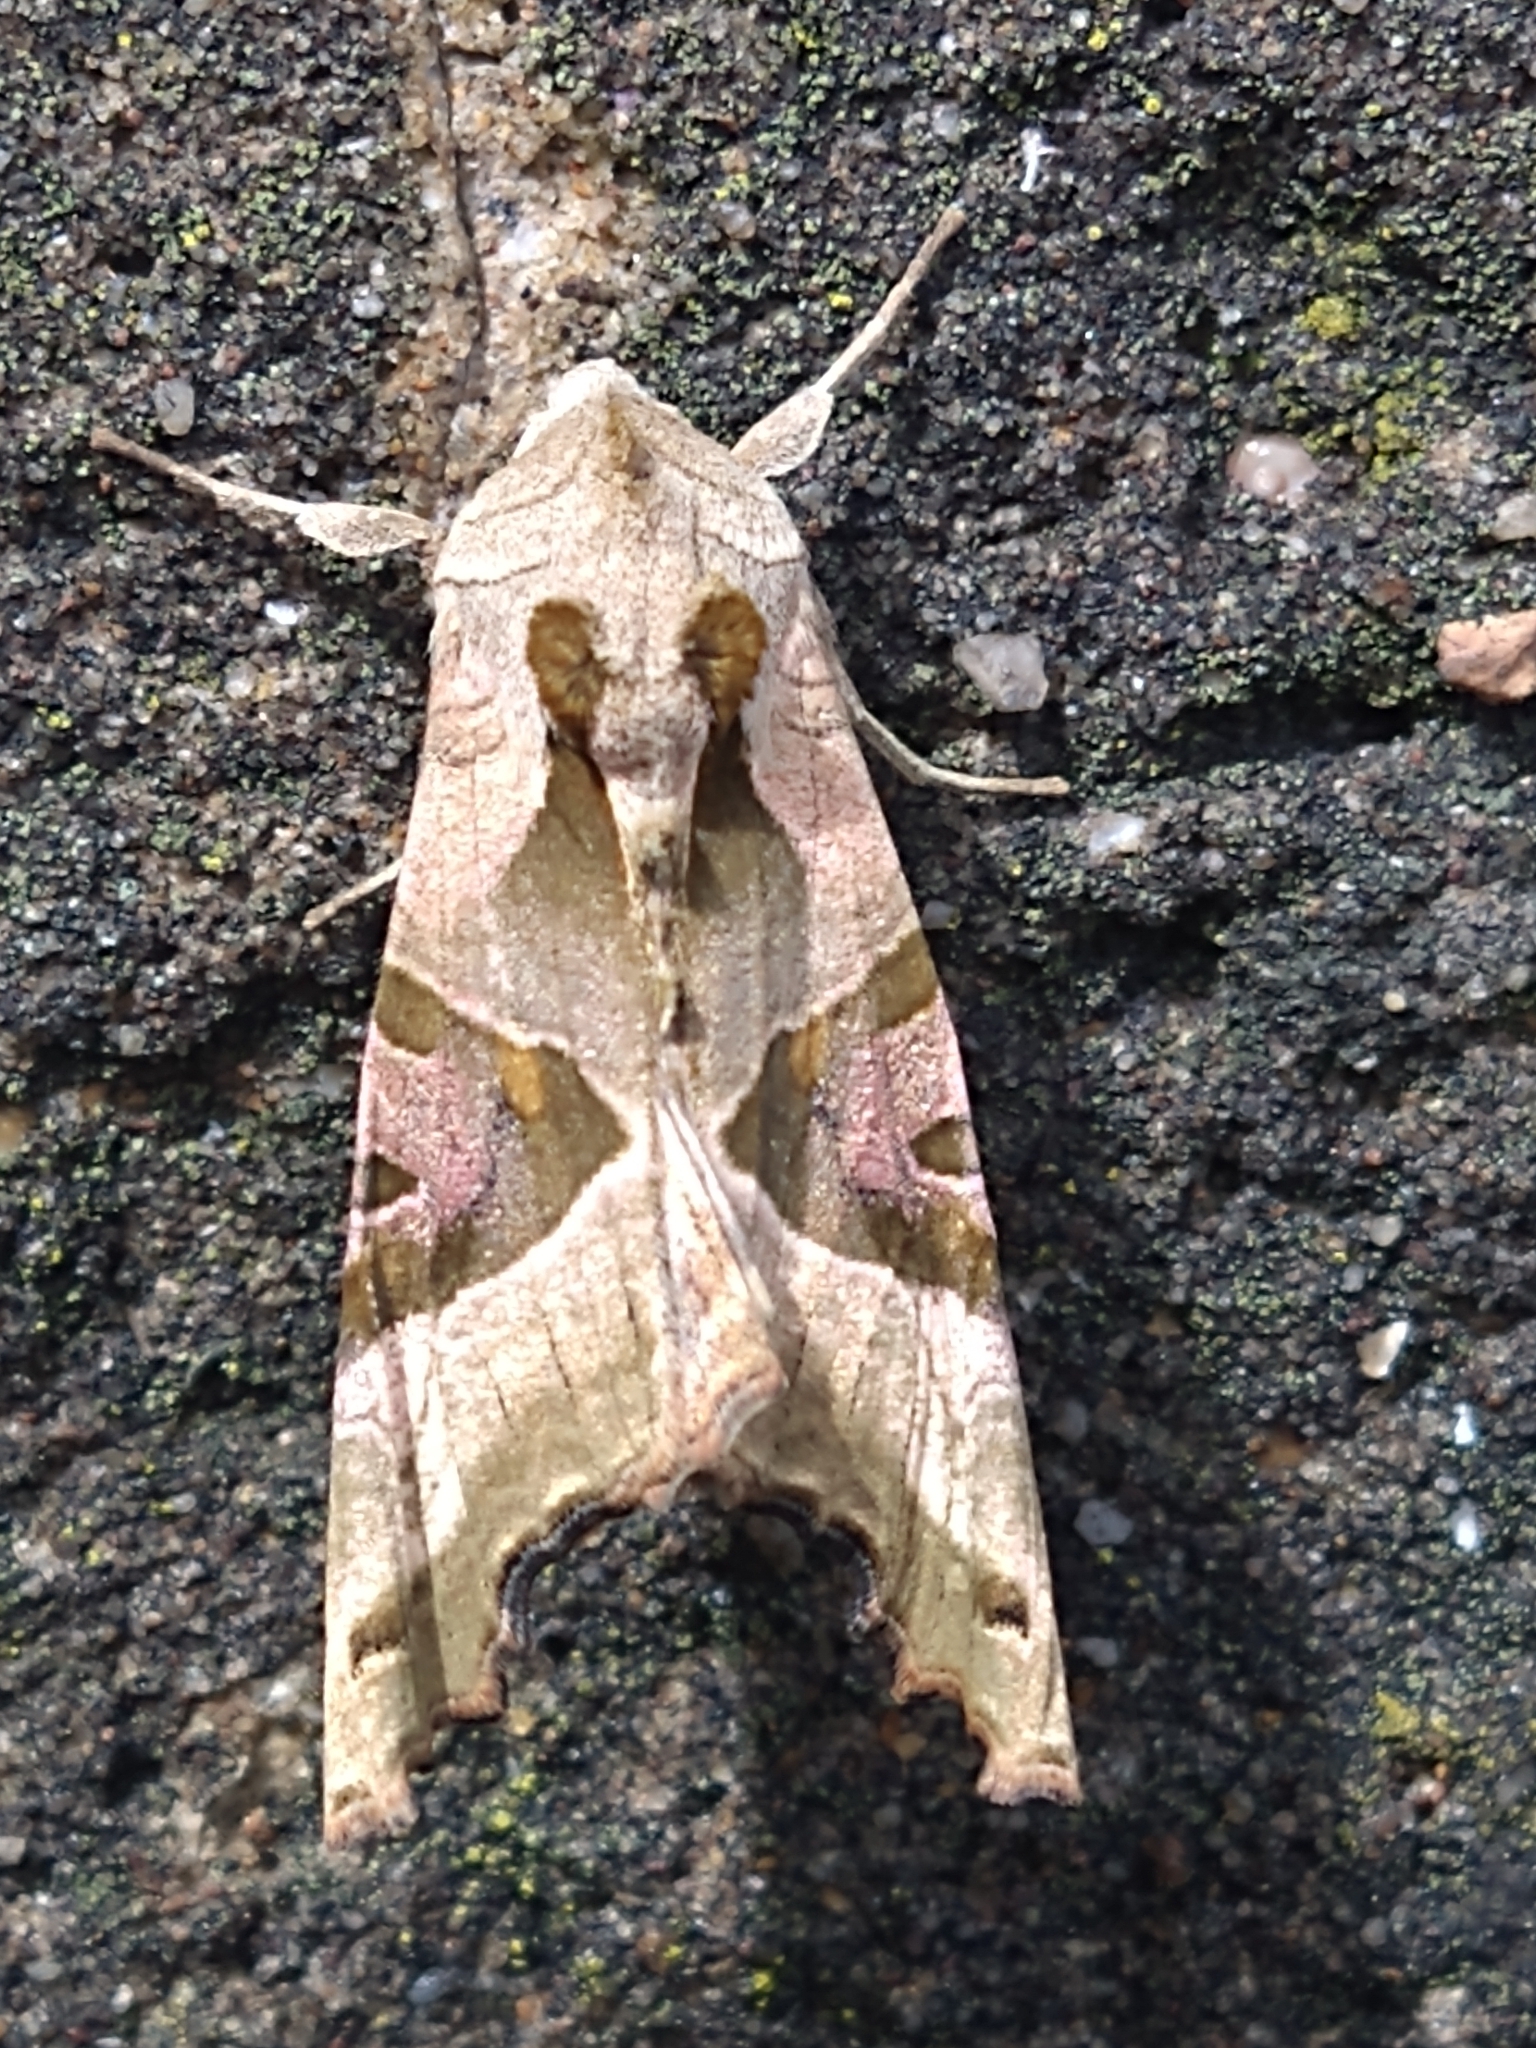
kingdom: Animalia
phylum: Arthropoda
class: Insecta
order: Lepidoptera
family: Noctuidae
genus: Phlogophora
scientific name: Phlogophora meticulosa
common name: Angle shades
